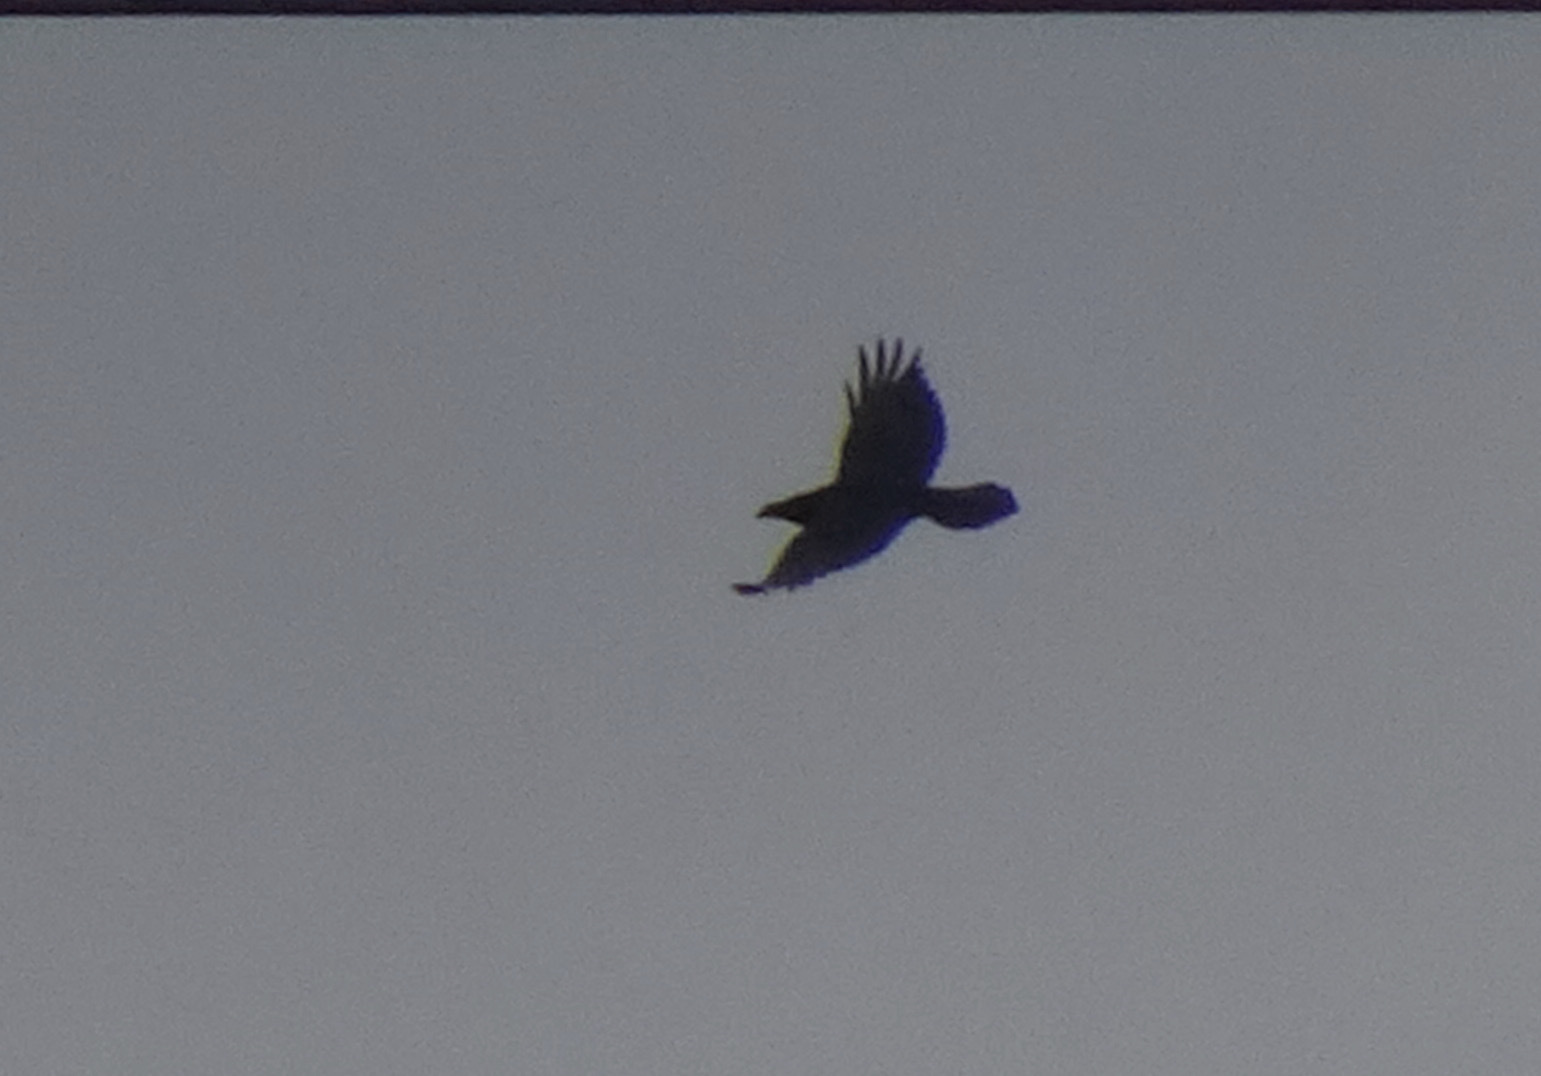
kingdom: Animalia
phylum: Chordata
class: Aves
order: Passeriformes
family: Corvidae
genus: Corvus
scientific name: Corvus corax
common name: Common raven
